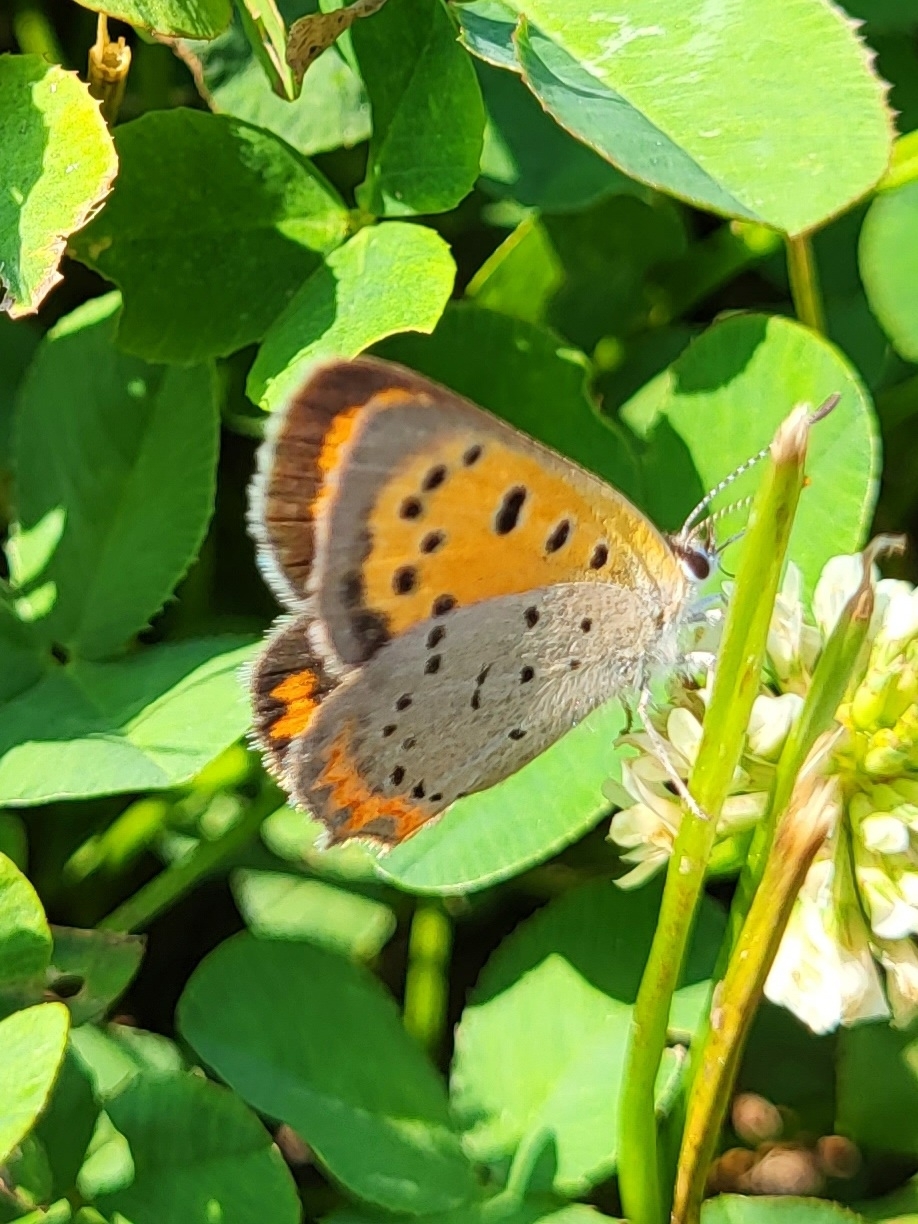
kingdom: Animalia
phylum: Arthropoda
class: Insecta
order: Lepidoptera
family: Lycaenidae
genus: Lycaena
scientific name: Lycaena hypophlaeas
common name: American copper
